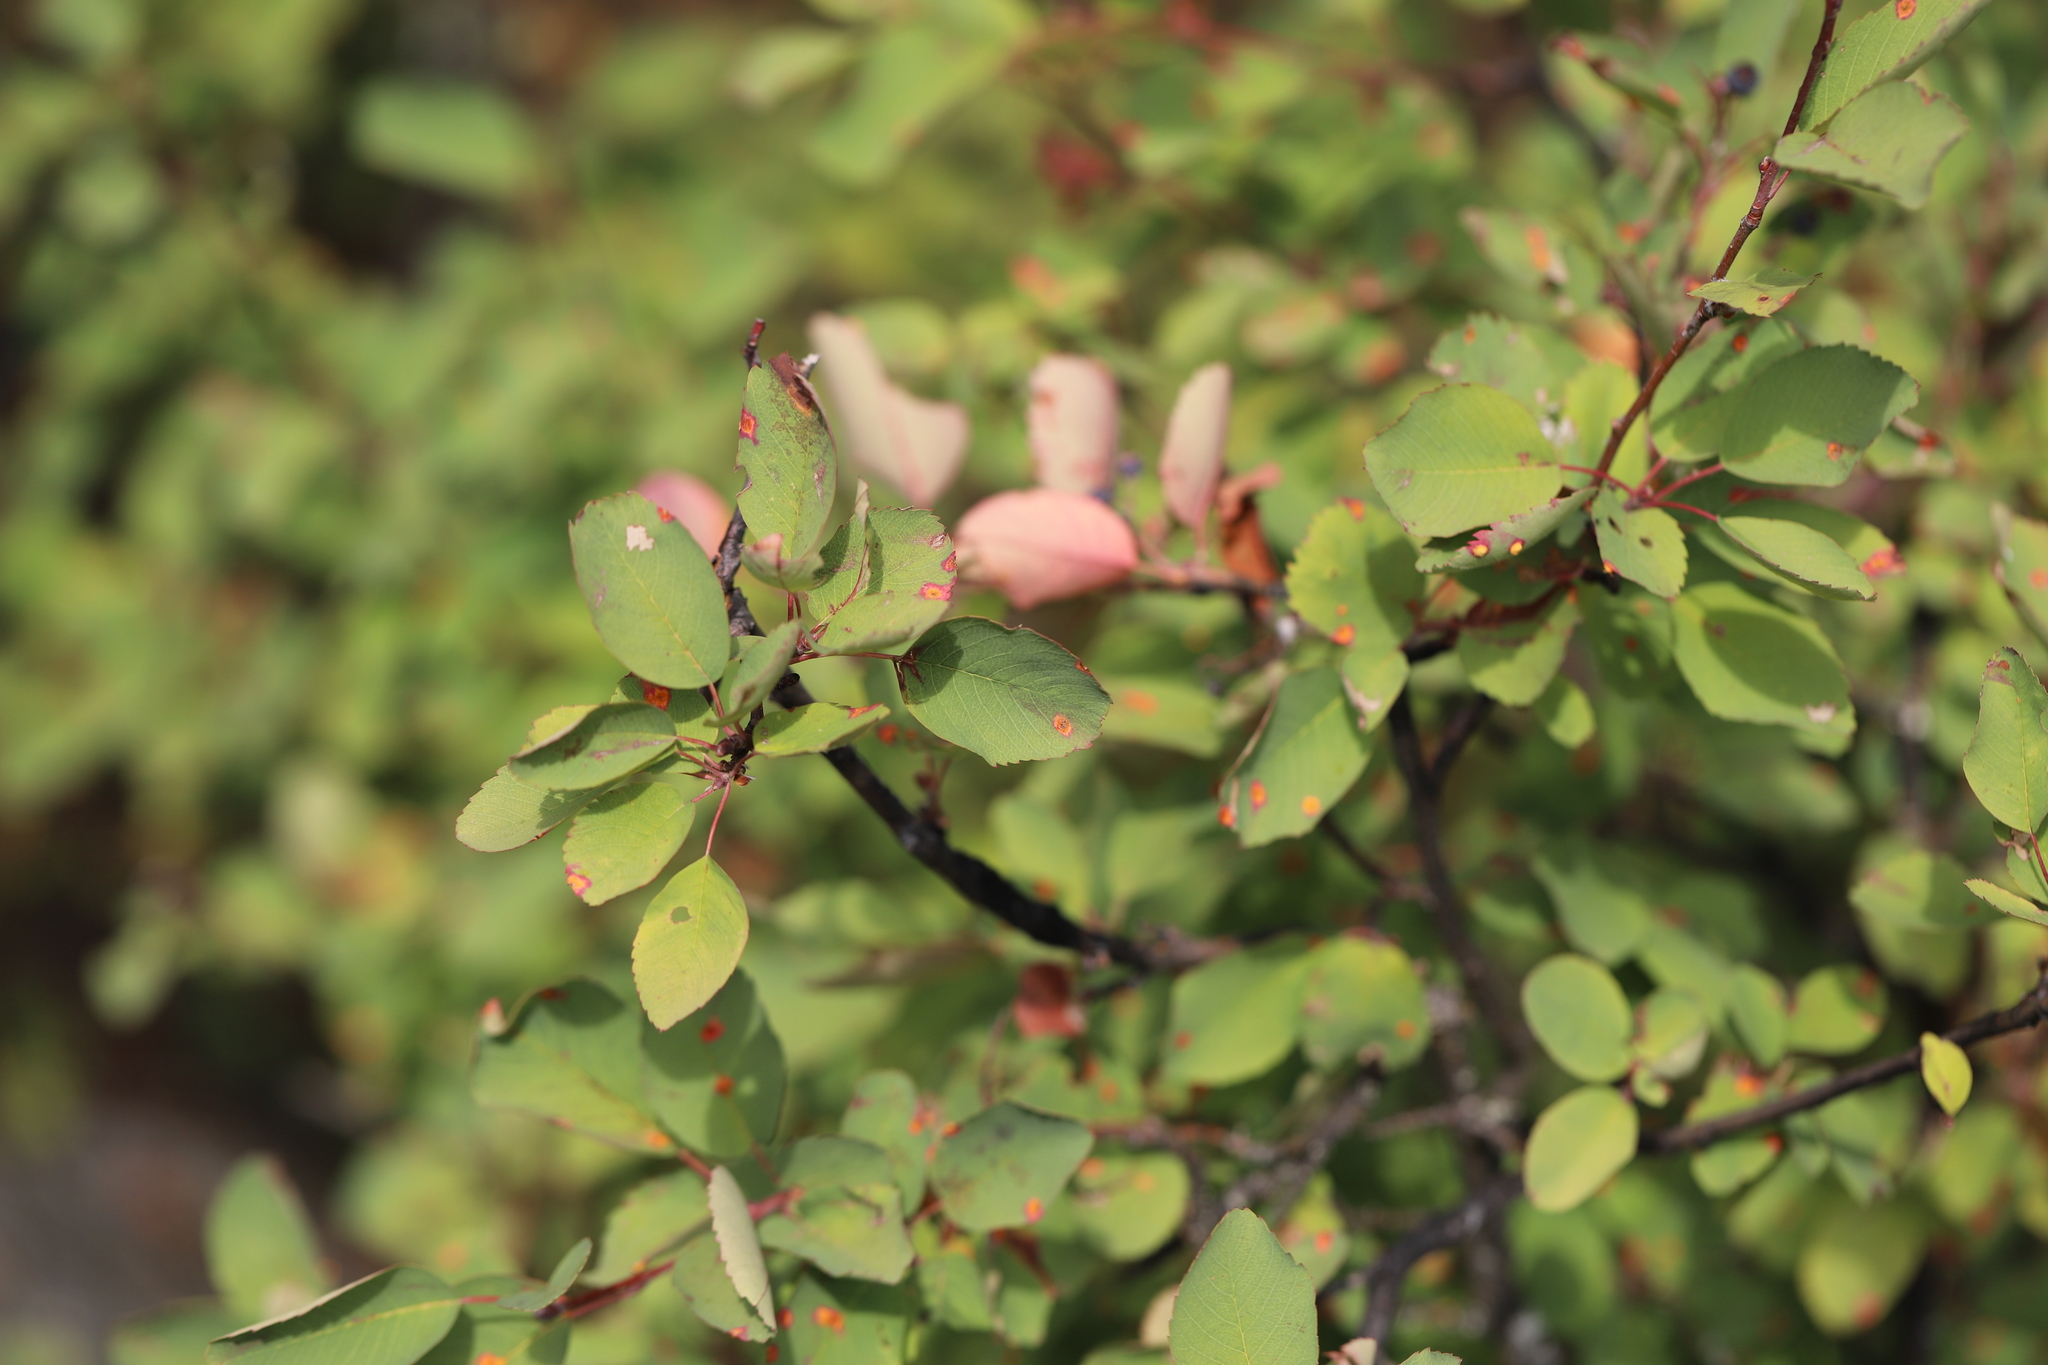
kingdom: Plantae
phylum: Tracheophyta
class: Magnoliopsida
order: Rosales
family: Rosaceae
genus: Amelanchier
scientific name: Amelanchier alnifolia
